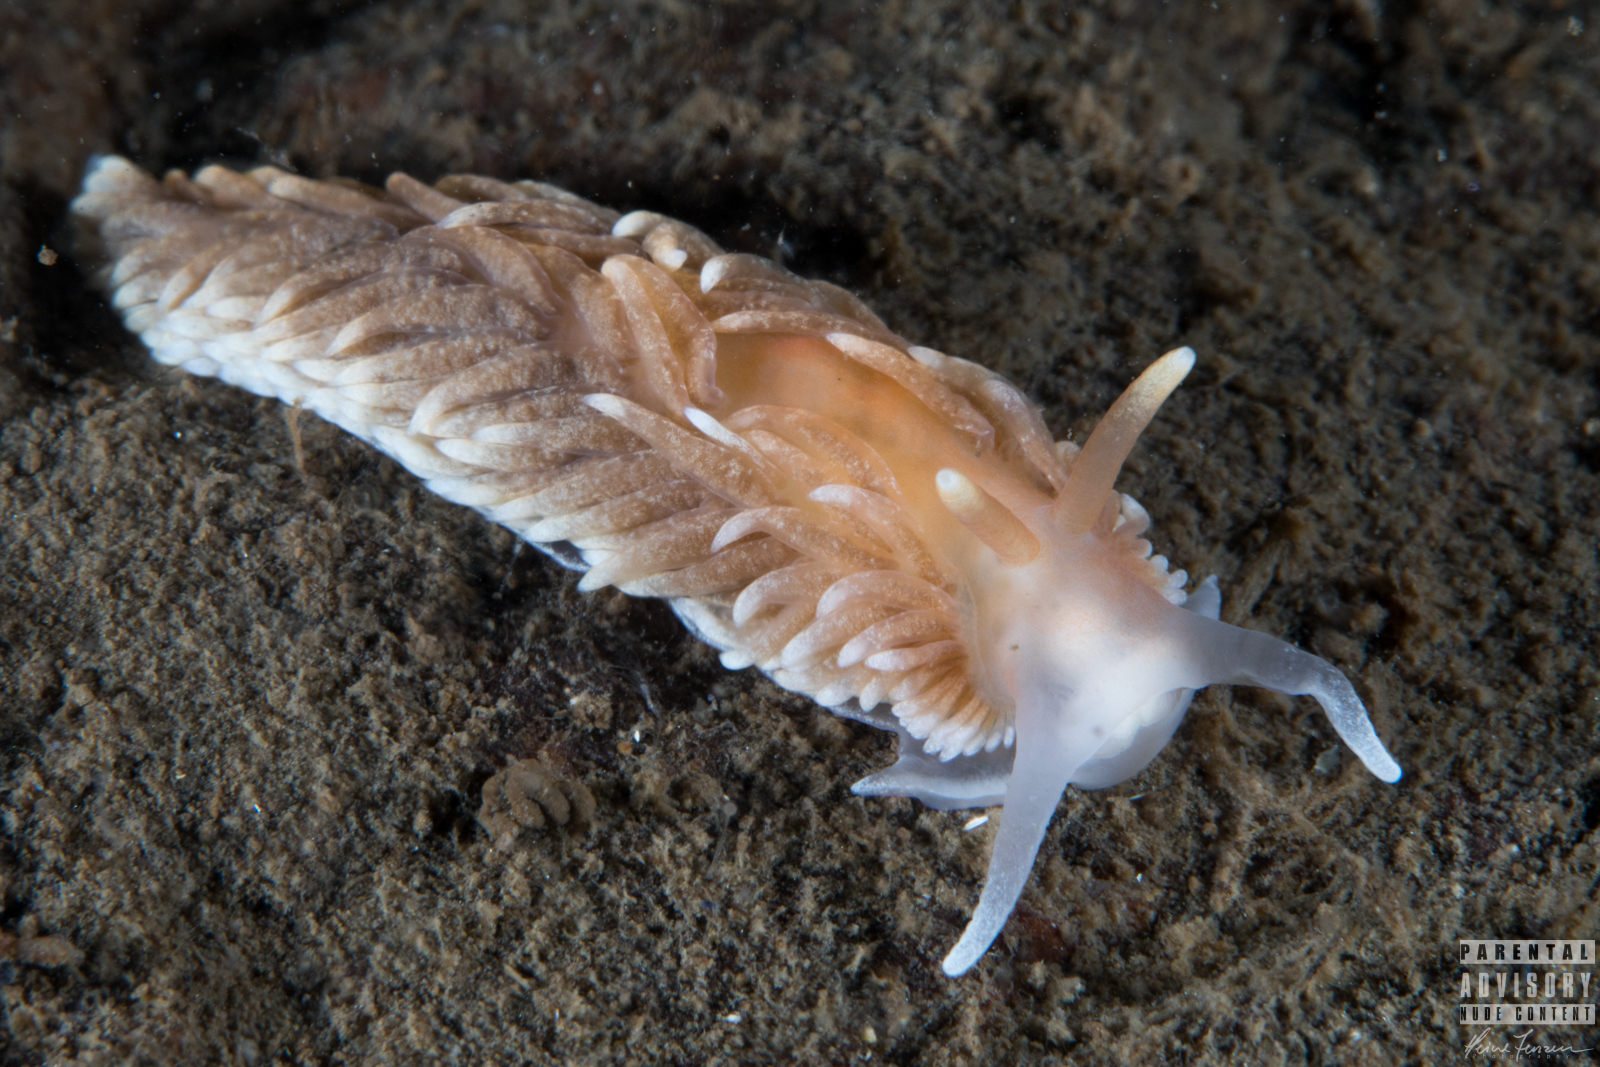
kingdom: Animalia
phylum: Mollusca
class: Gastropoda
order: Nudibranchia
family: Aeolidiidae
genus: Aeolidiella
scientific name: Aeolidiella glauca
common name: Orange-brown aeolid
